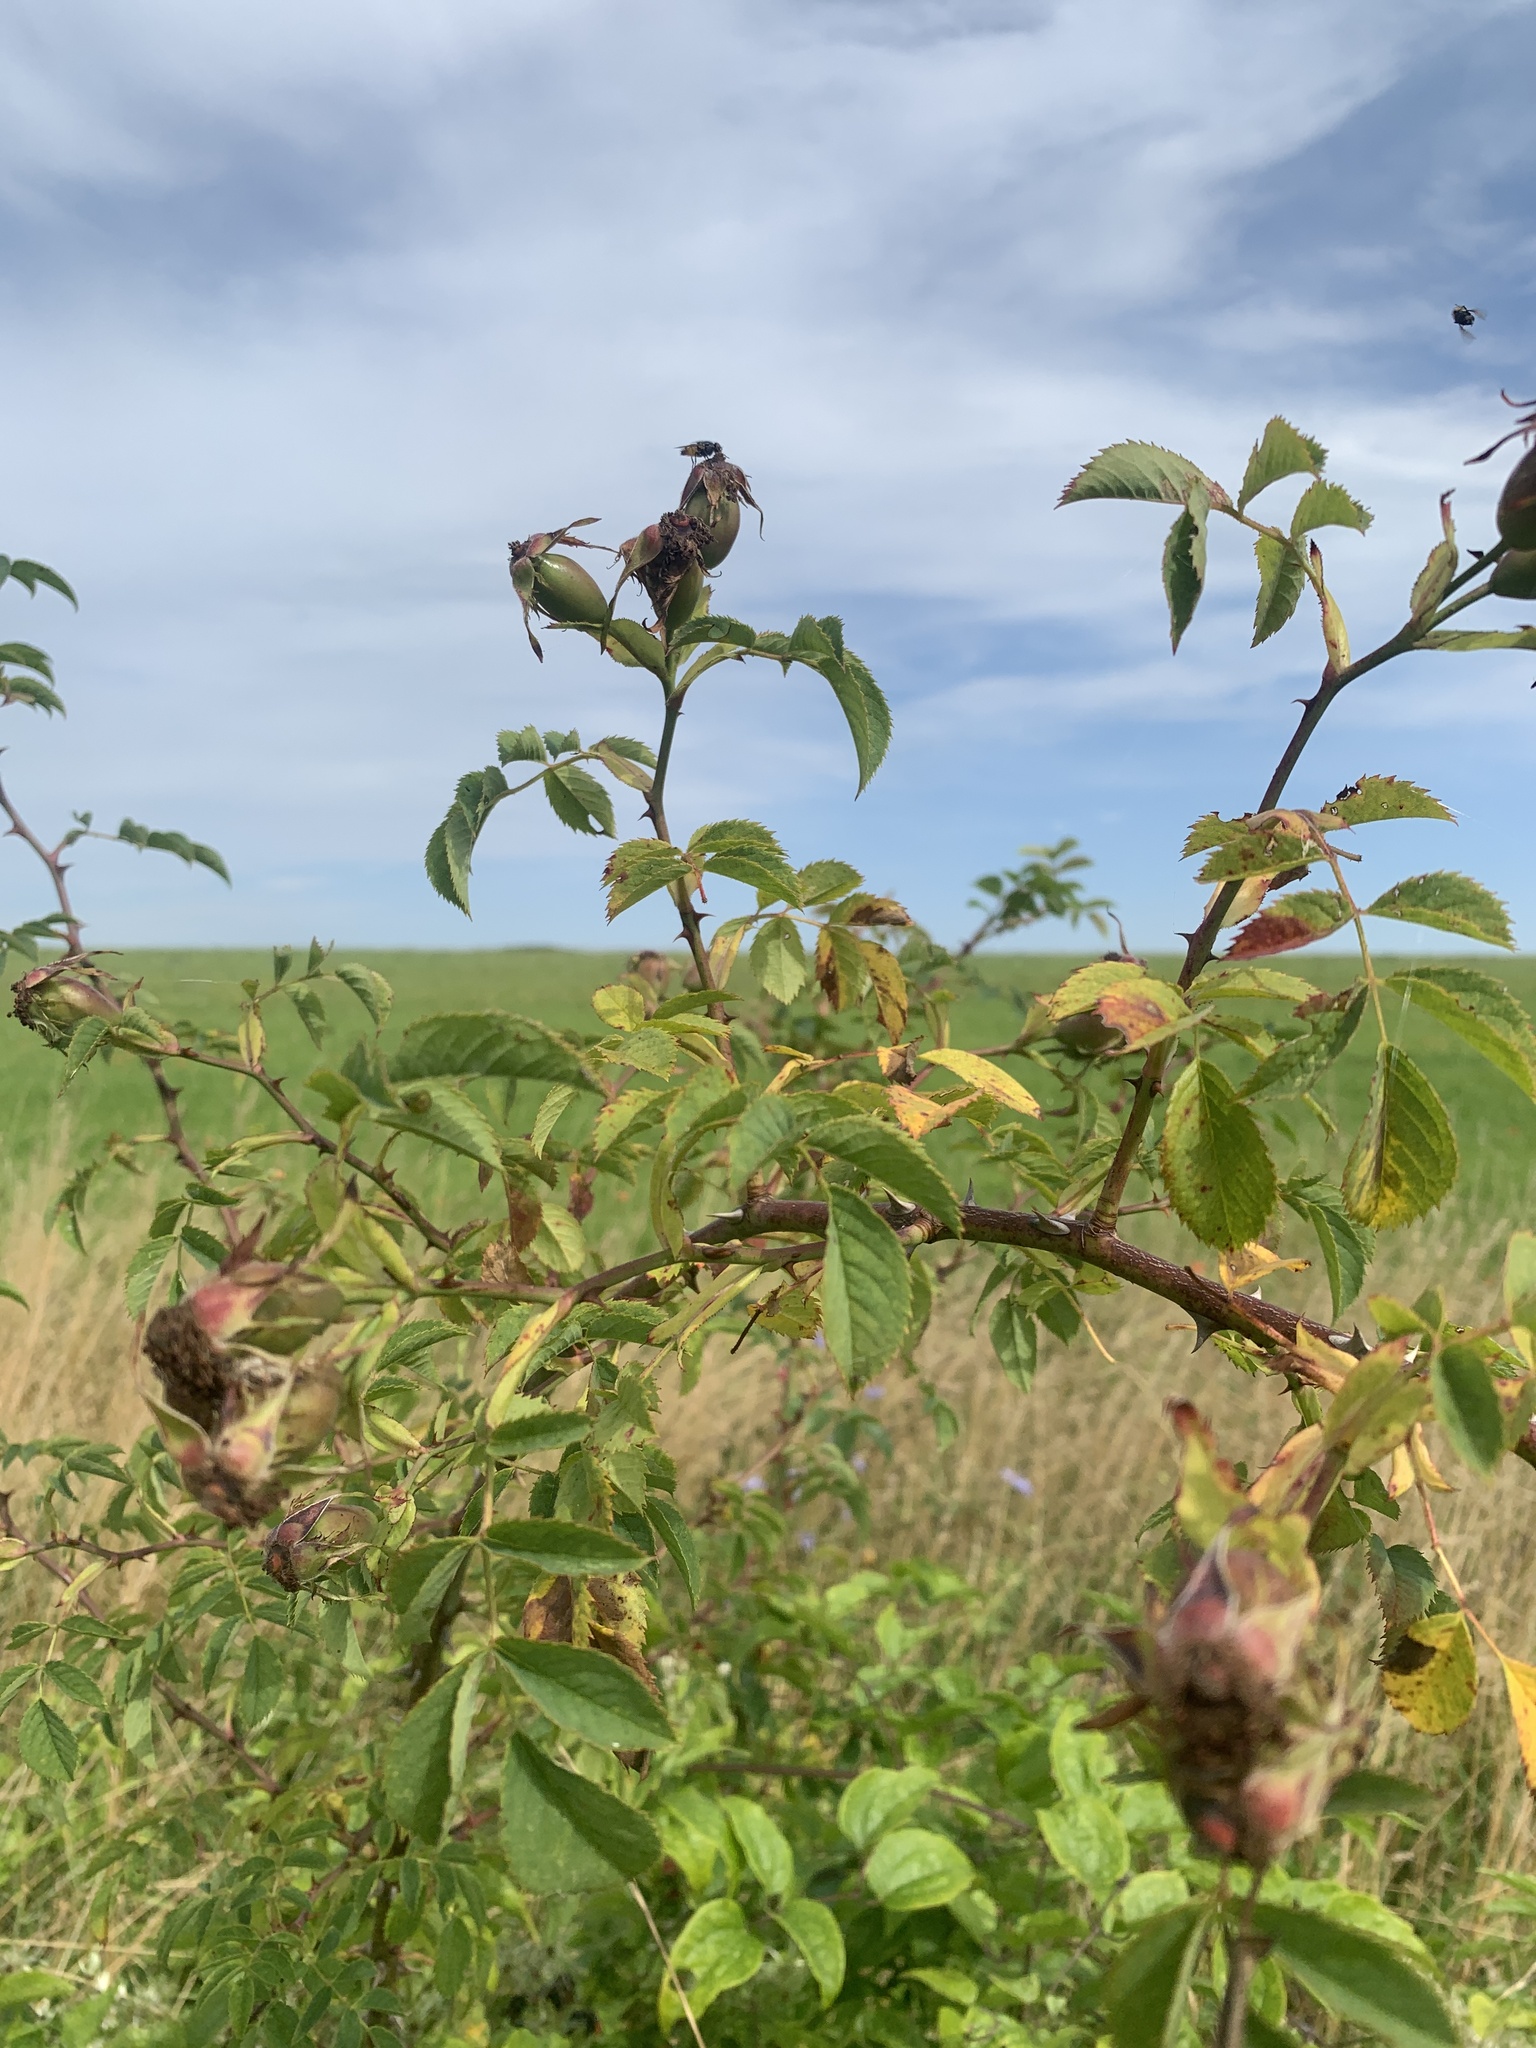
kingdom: Plantae
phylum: Tracheophyta
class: Magnoliopsida
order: Rosales
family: Rosaceae
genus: Rosa
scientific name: Rosa canina
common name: Dog rose
